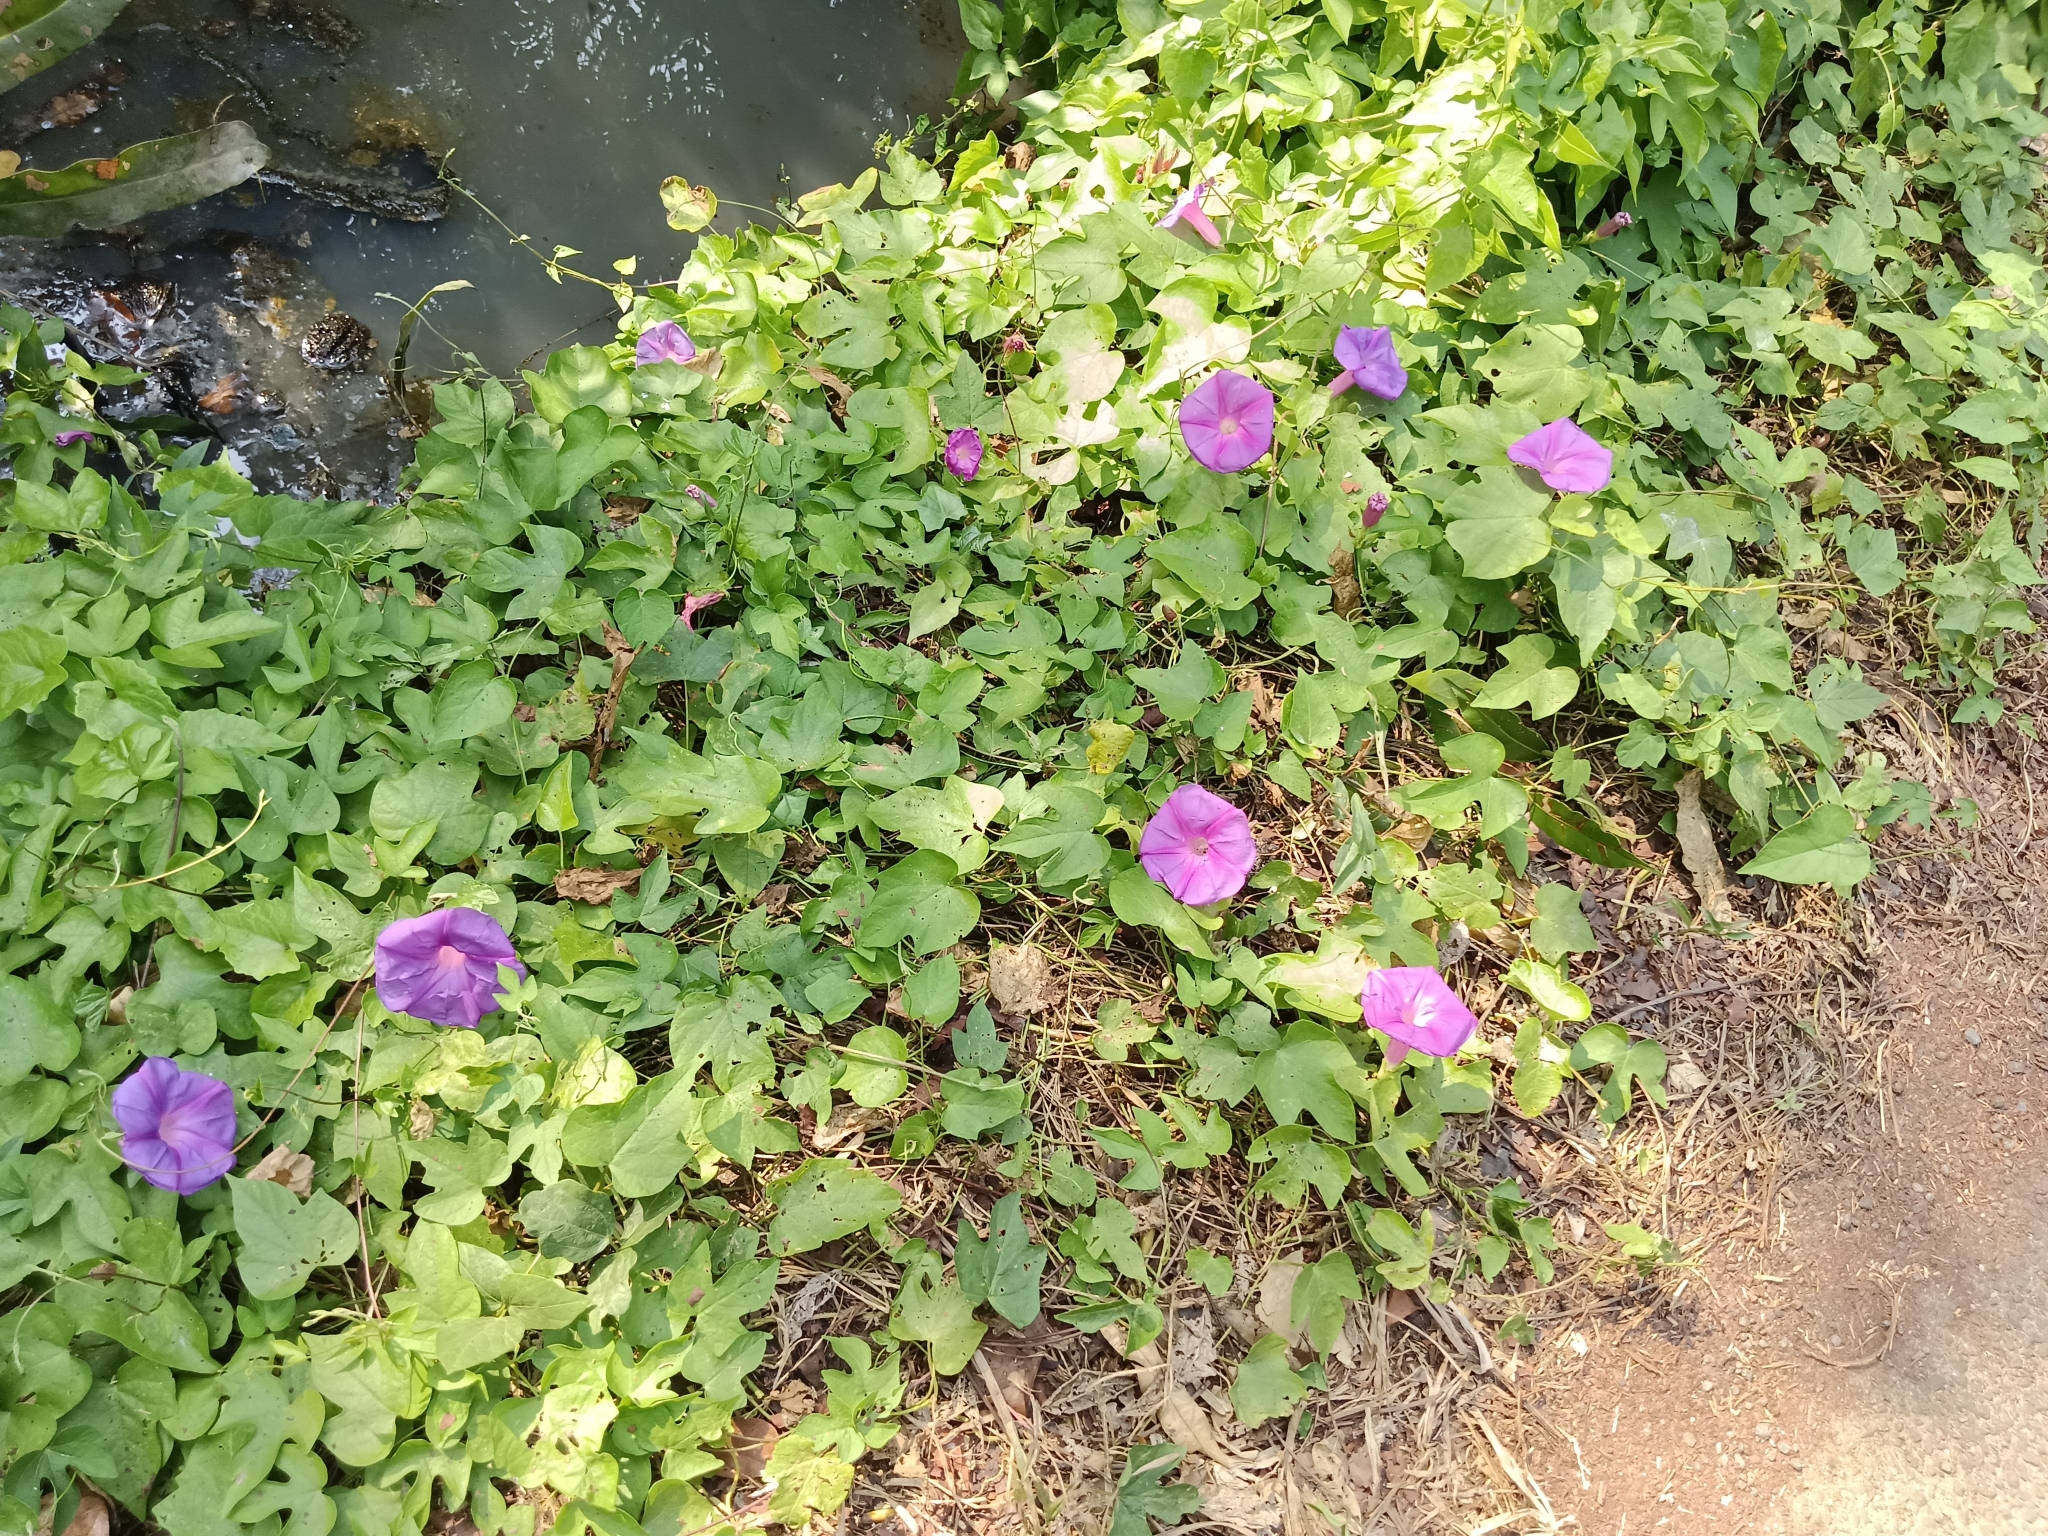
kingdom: Plantae
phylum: Tracheophyta
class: Magnoliopsida
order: Solanales
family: Convolvulaceae
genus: Ipomoea
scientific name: Ipomoea indica
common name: Blue dawnflower
